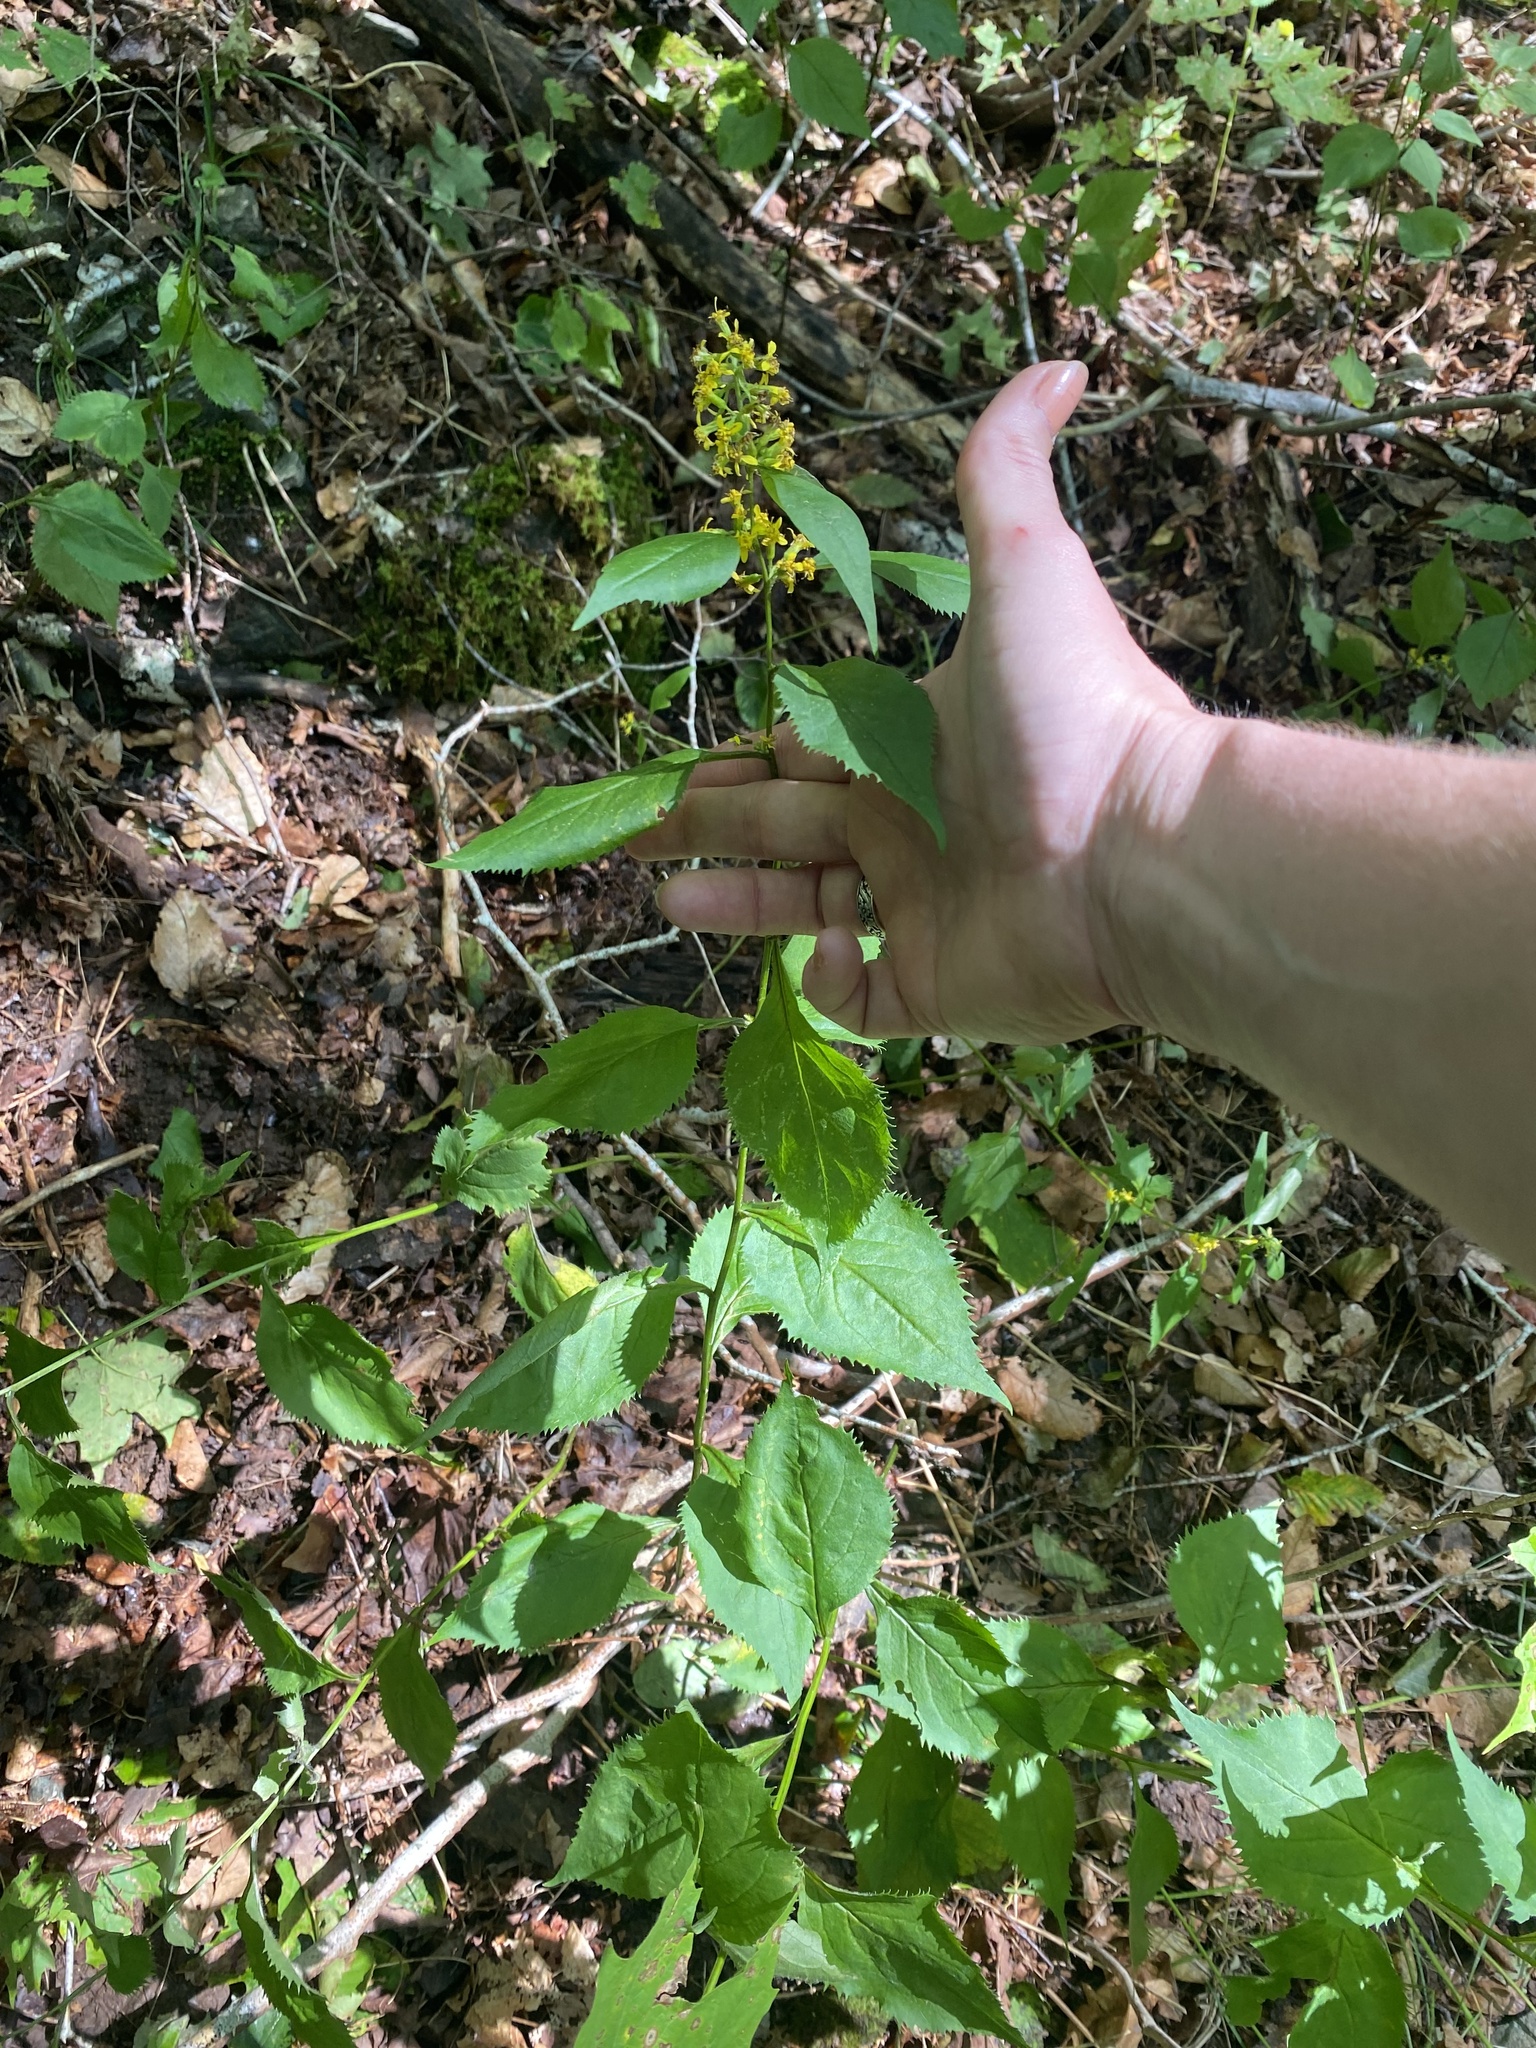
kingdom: Plantae
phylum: Tracheophyta
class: Magnoliopsida
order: Asterales
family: Asteraceae
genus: Solidago
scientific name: Solidago flexicaulis
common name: Zig-zag goldenrod
